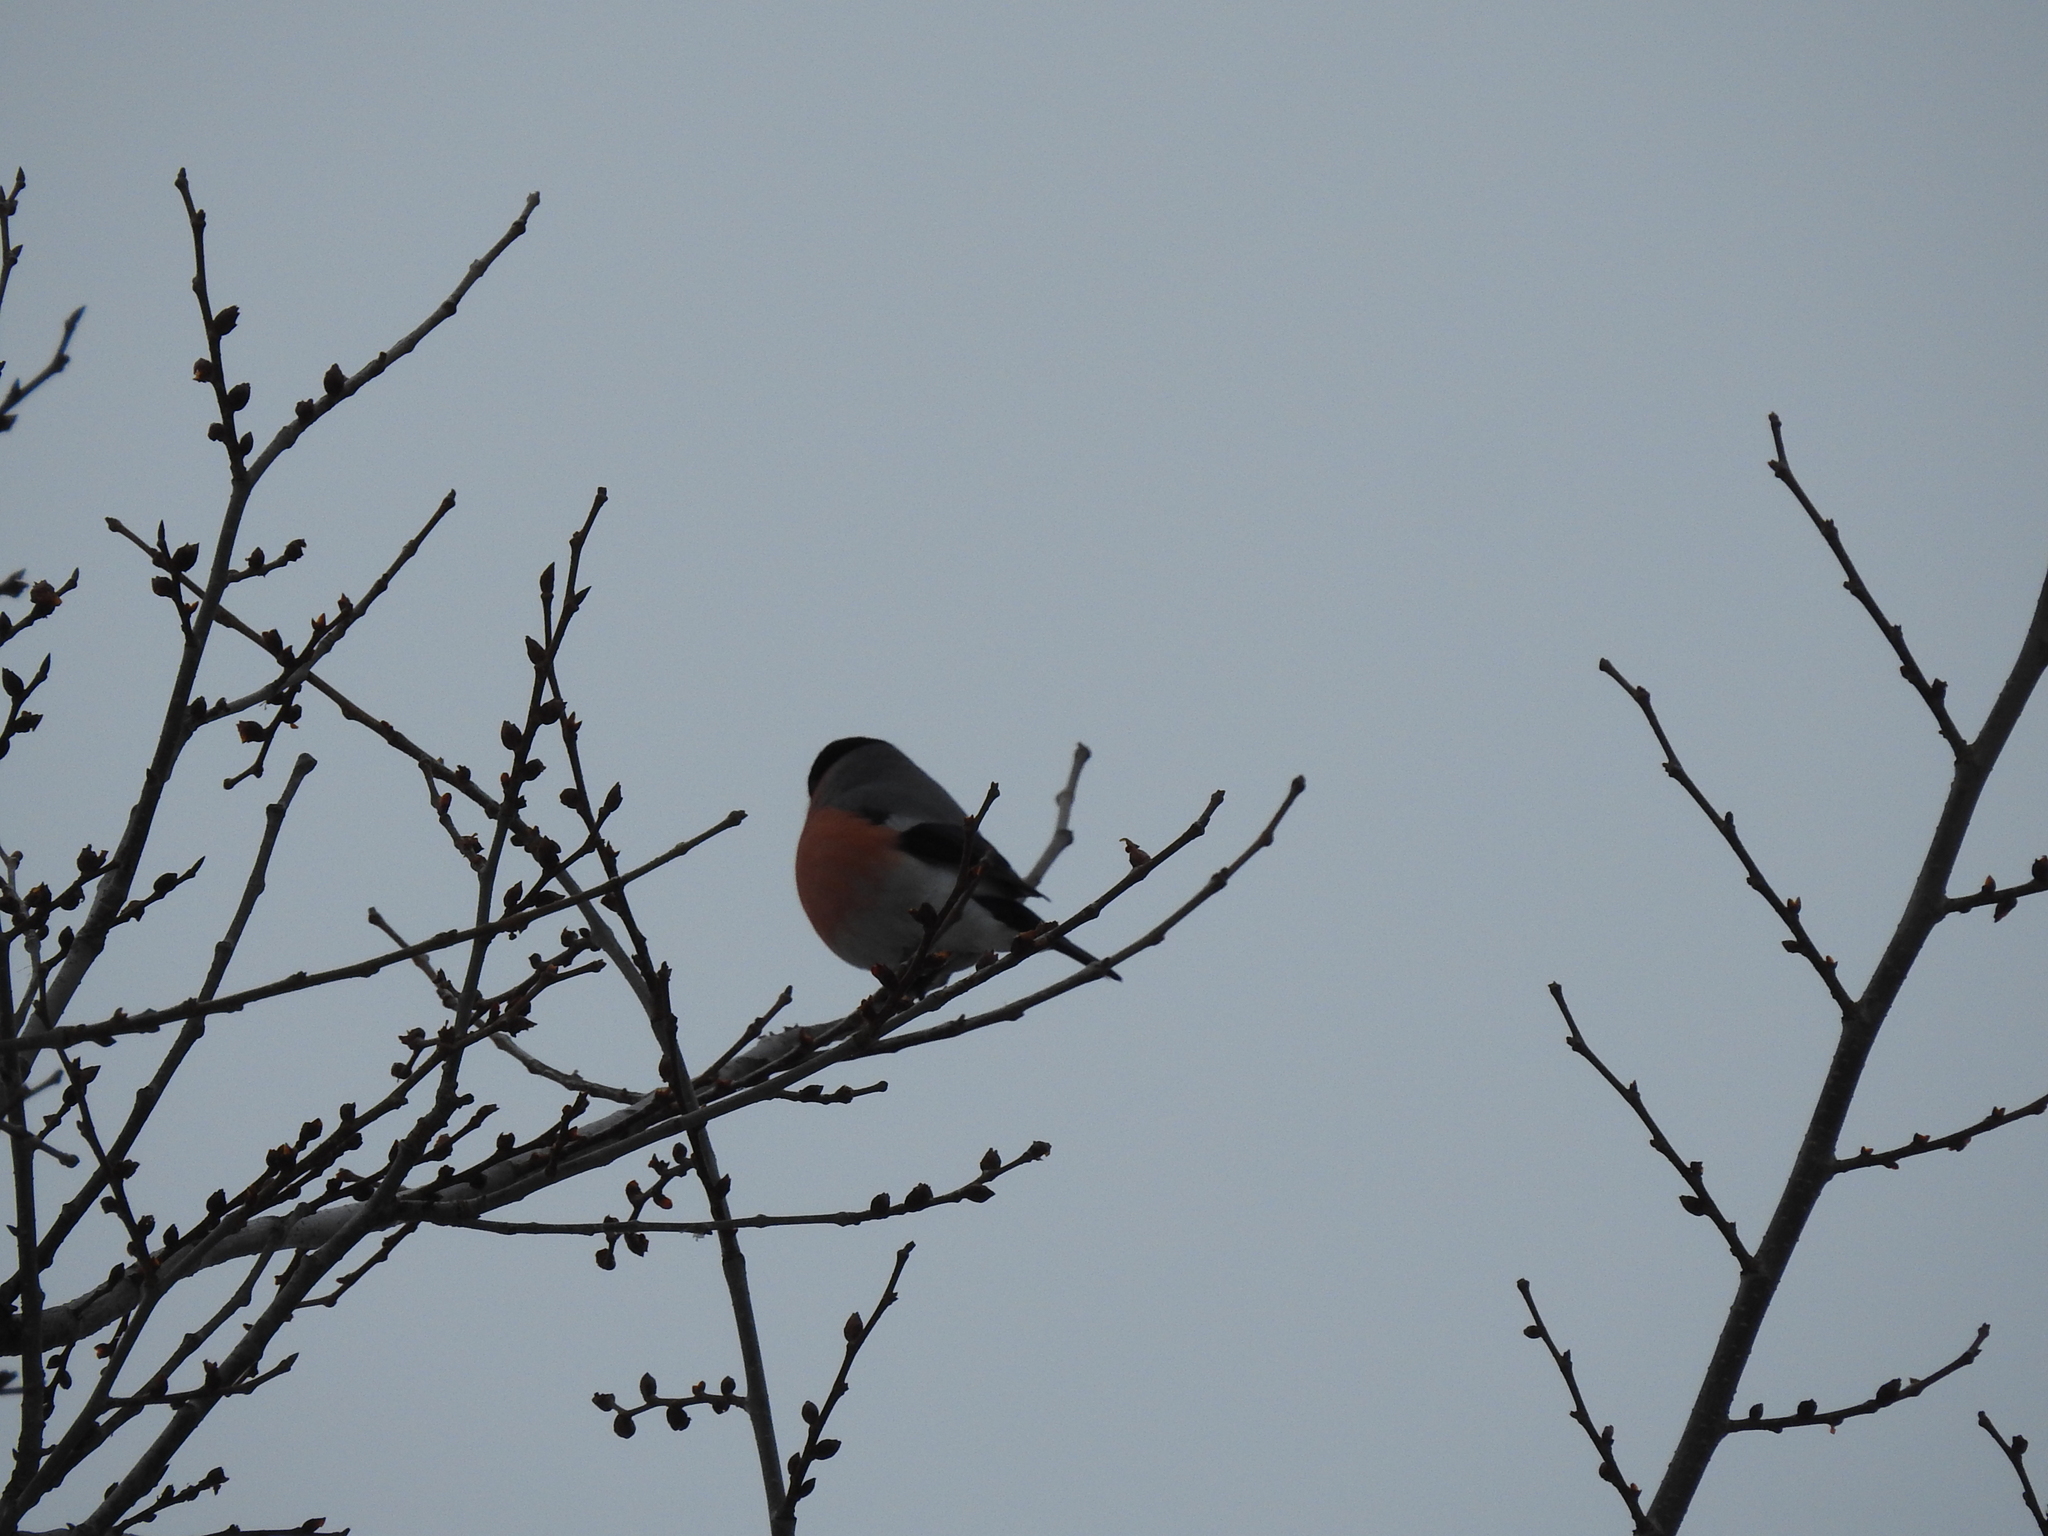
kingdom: Animalia
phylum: Chordata
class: Aves
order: Passeriformes
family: Fringillidae
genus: Pyrrhula
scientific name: Pyrrhula pyrrhula
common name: Eurasian bullfinch
